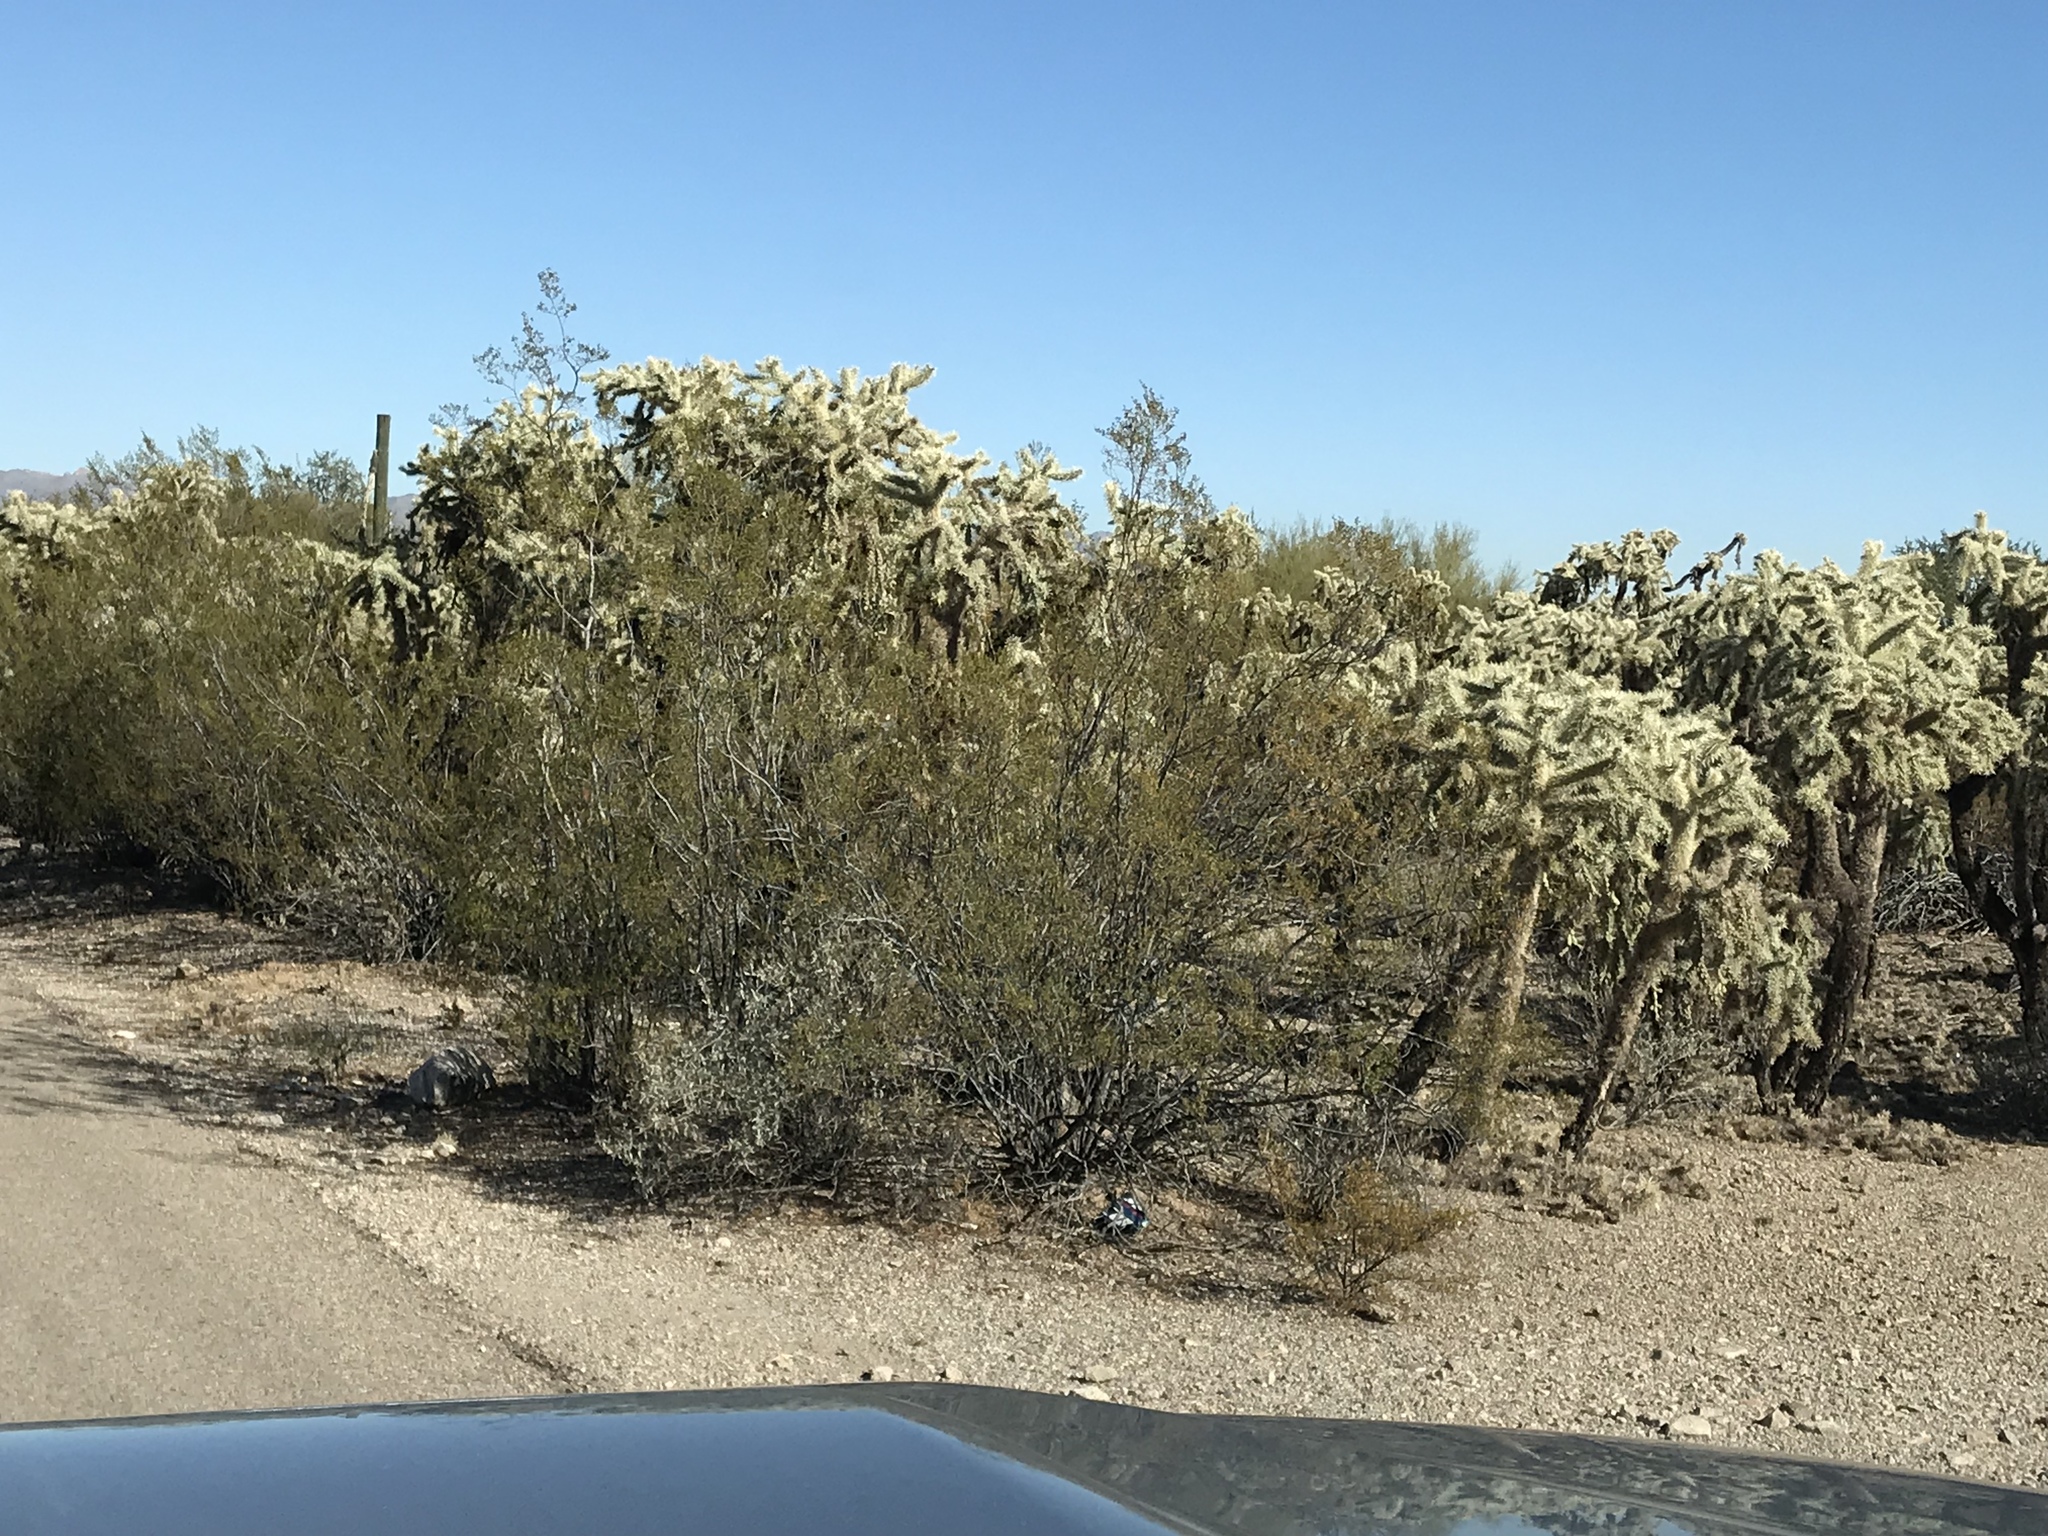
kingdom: Plantae
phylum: Tracheophyta
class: Magnoliopsida
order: Zygophyllales
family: Zygophyllaceae
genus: Larrea
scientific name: Larrea tridentata
